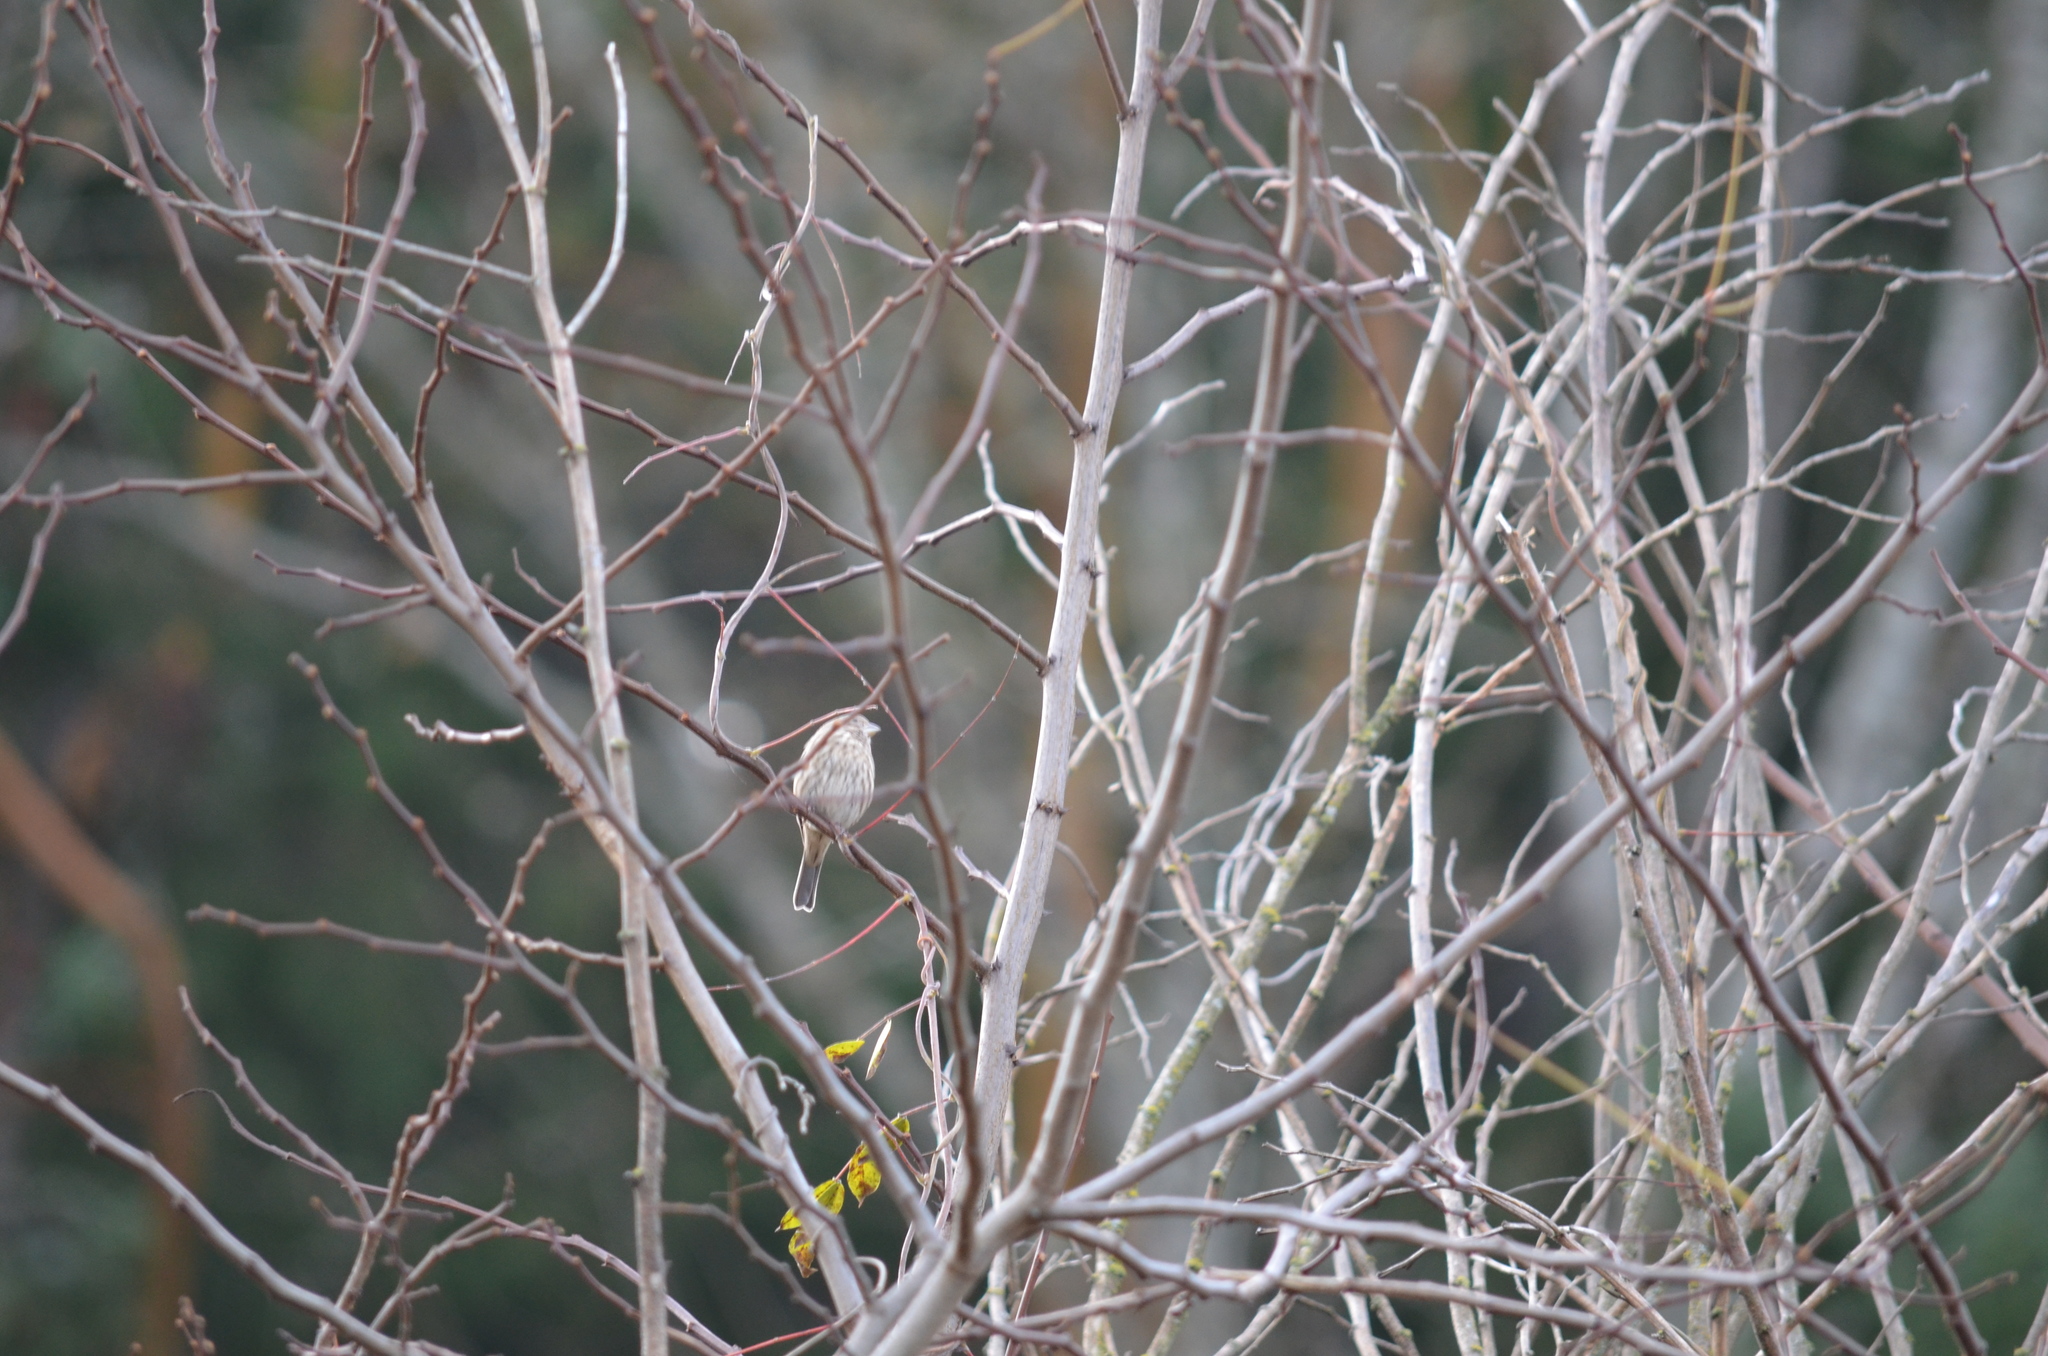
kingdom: Animalia
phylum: Chordata
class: Aves
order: Passeriformes
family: Fringillidae
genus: Haemorhous
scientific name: Haemorhous mexicanus
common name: House finch
